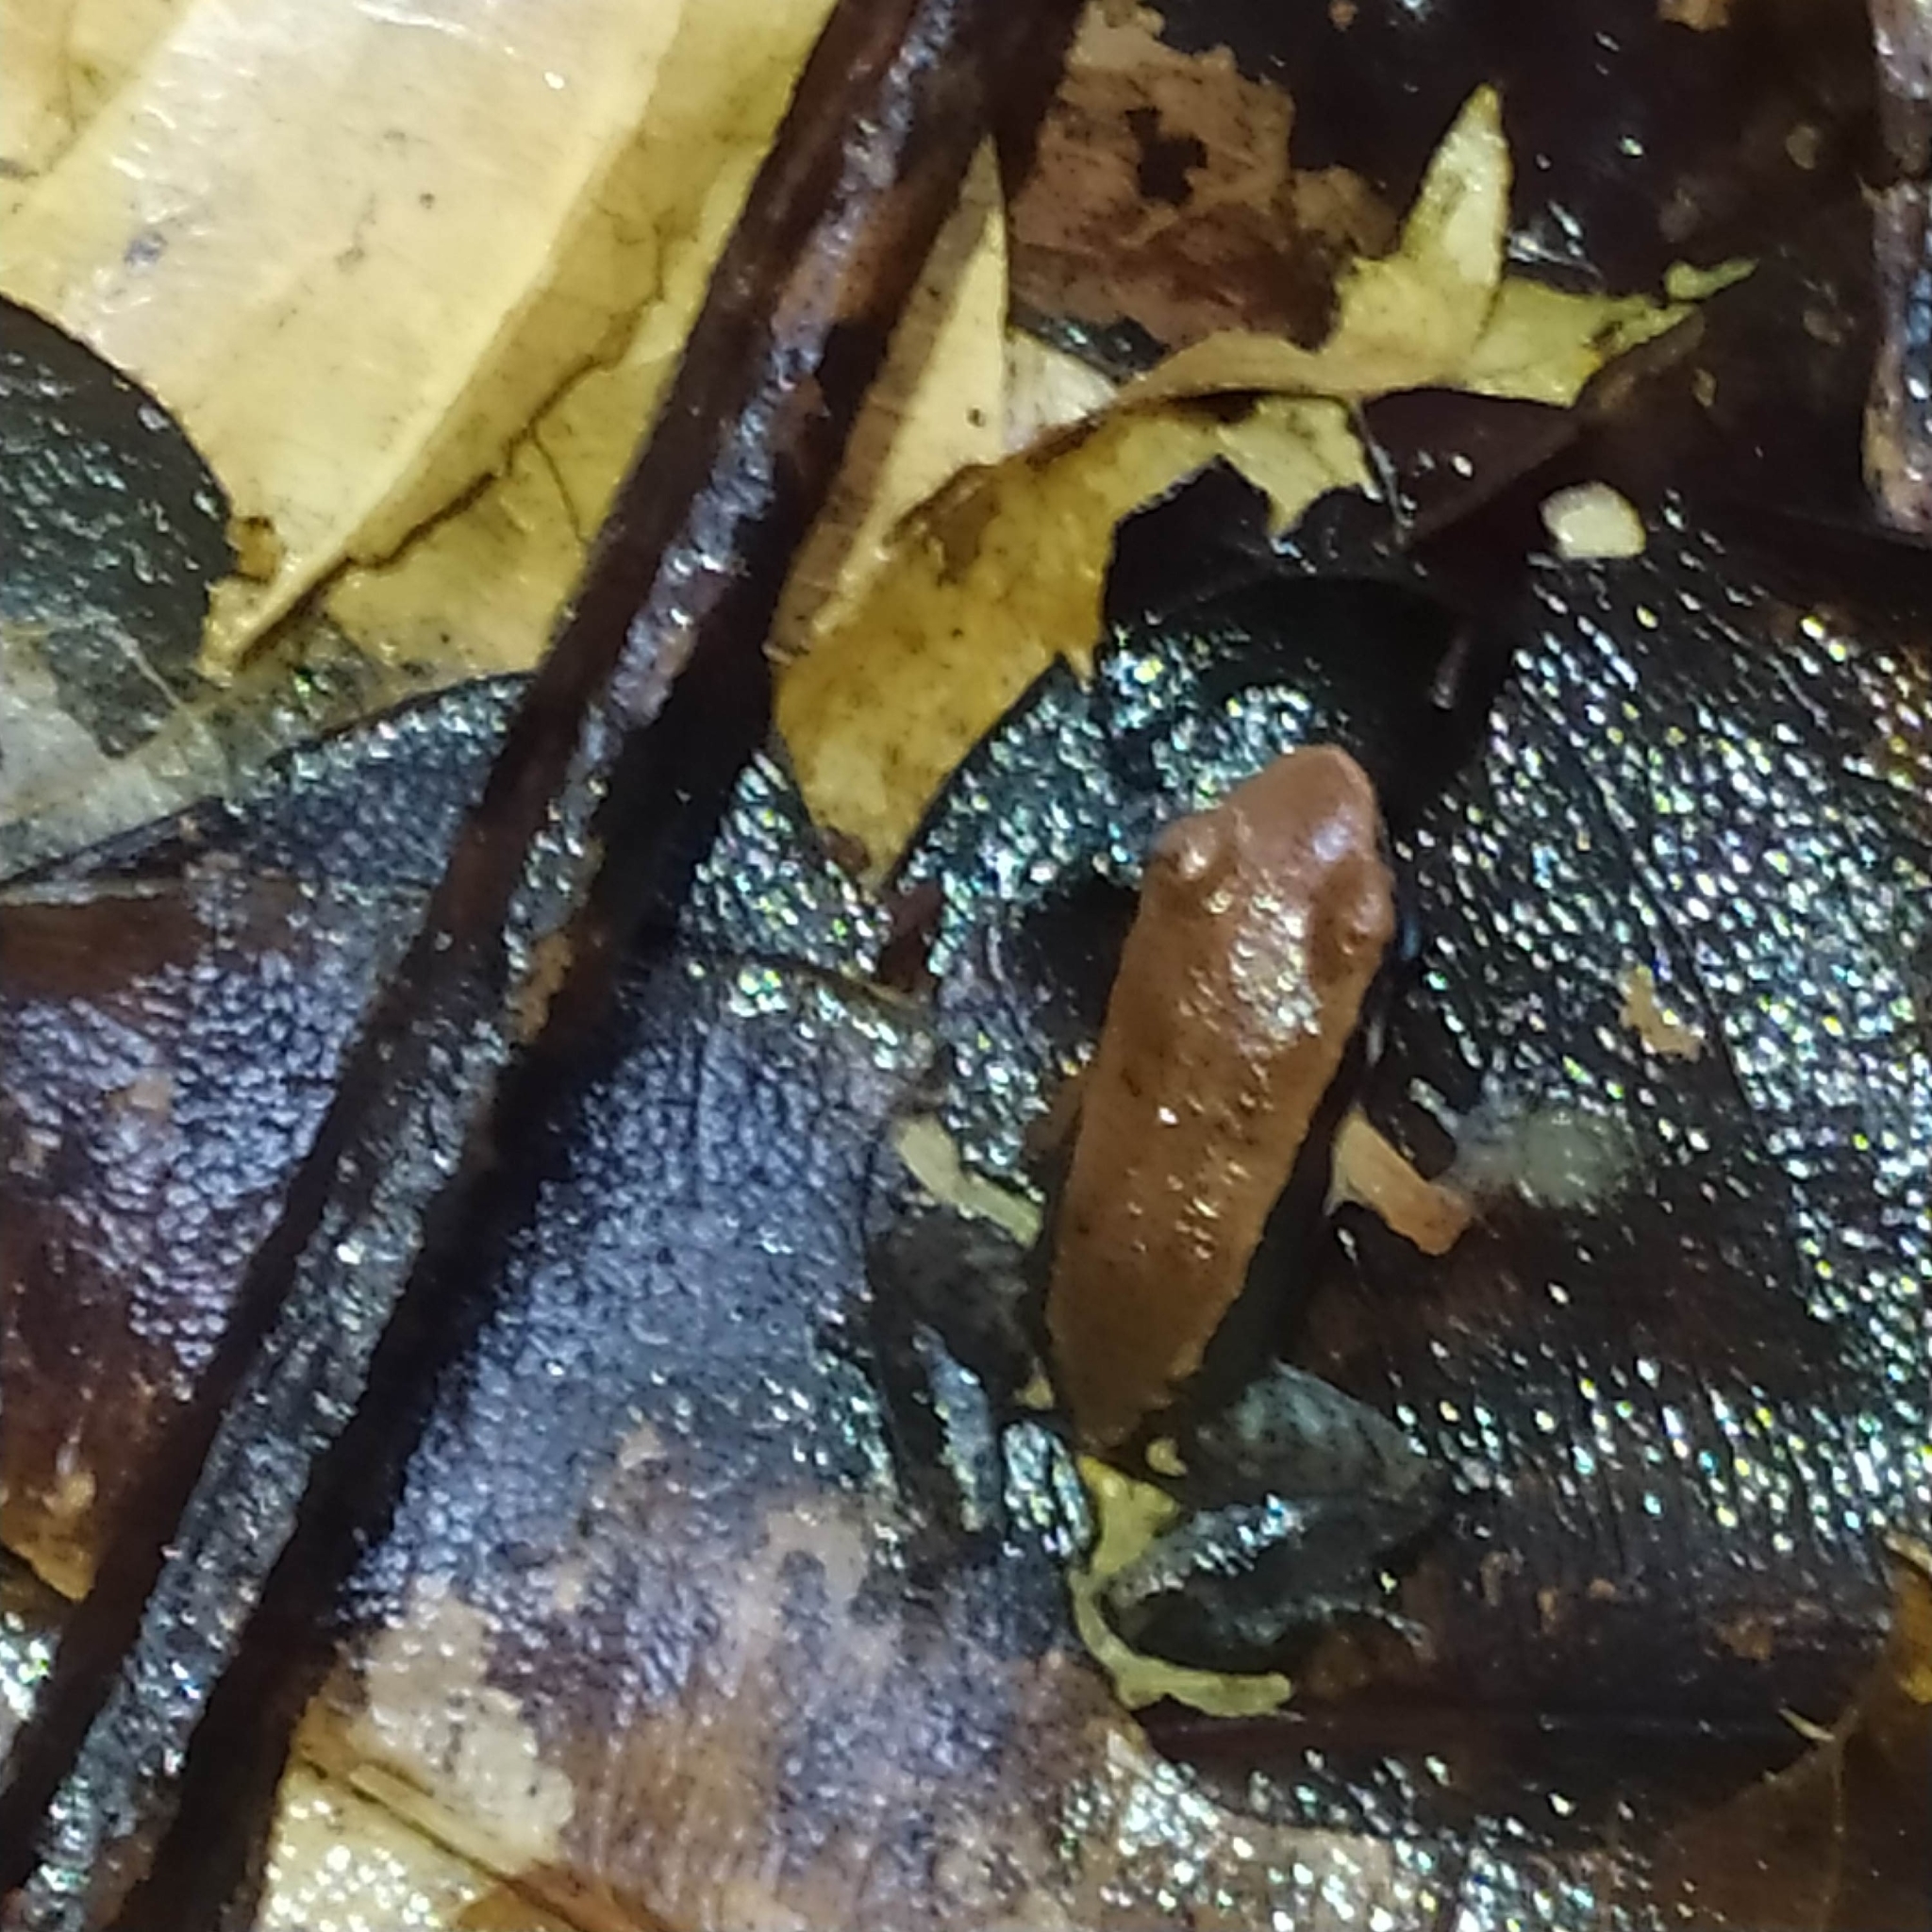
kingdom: Animalia
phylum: Chordata
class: Amphibia
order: Anura
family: Aromobatidae
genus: Allobates
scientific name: Allobates granti
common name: Black-flanked poison frog
